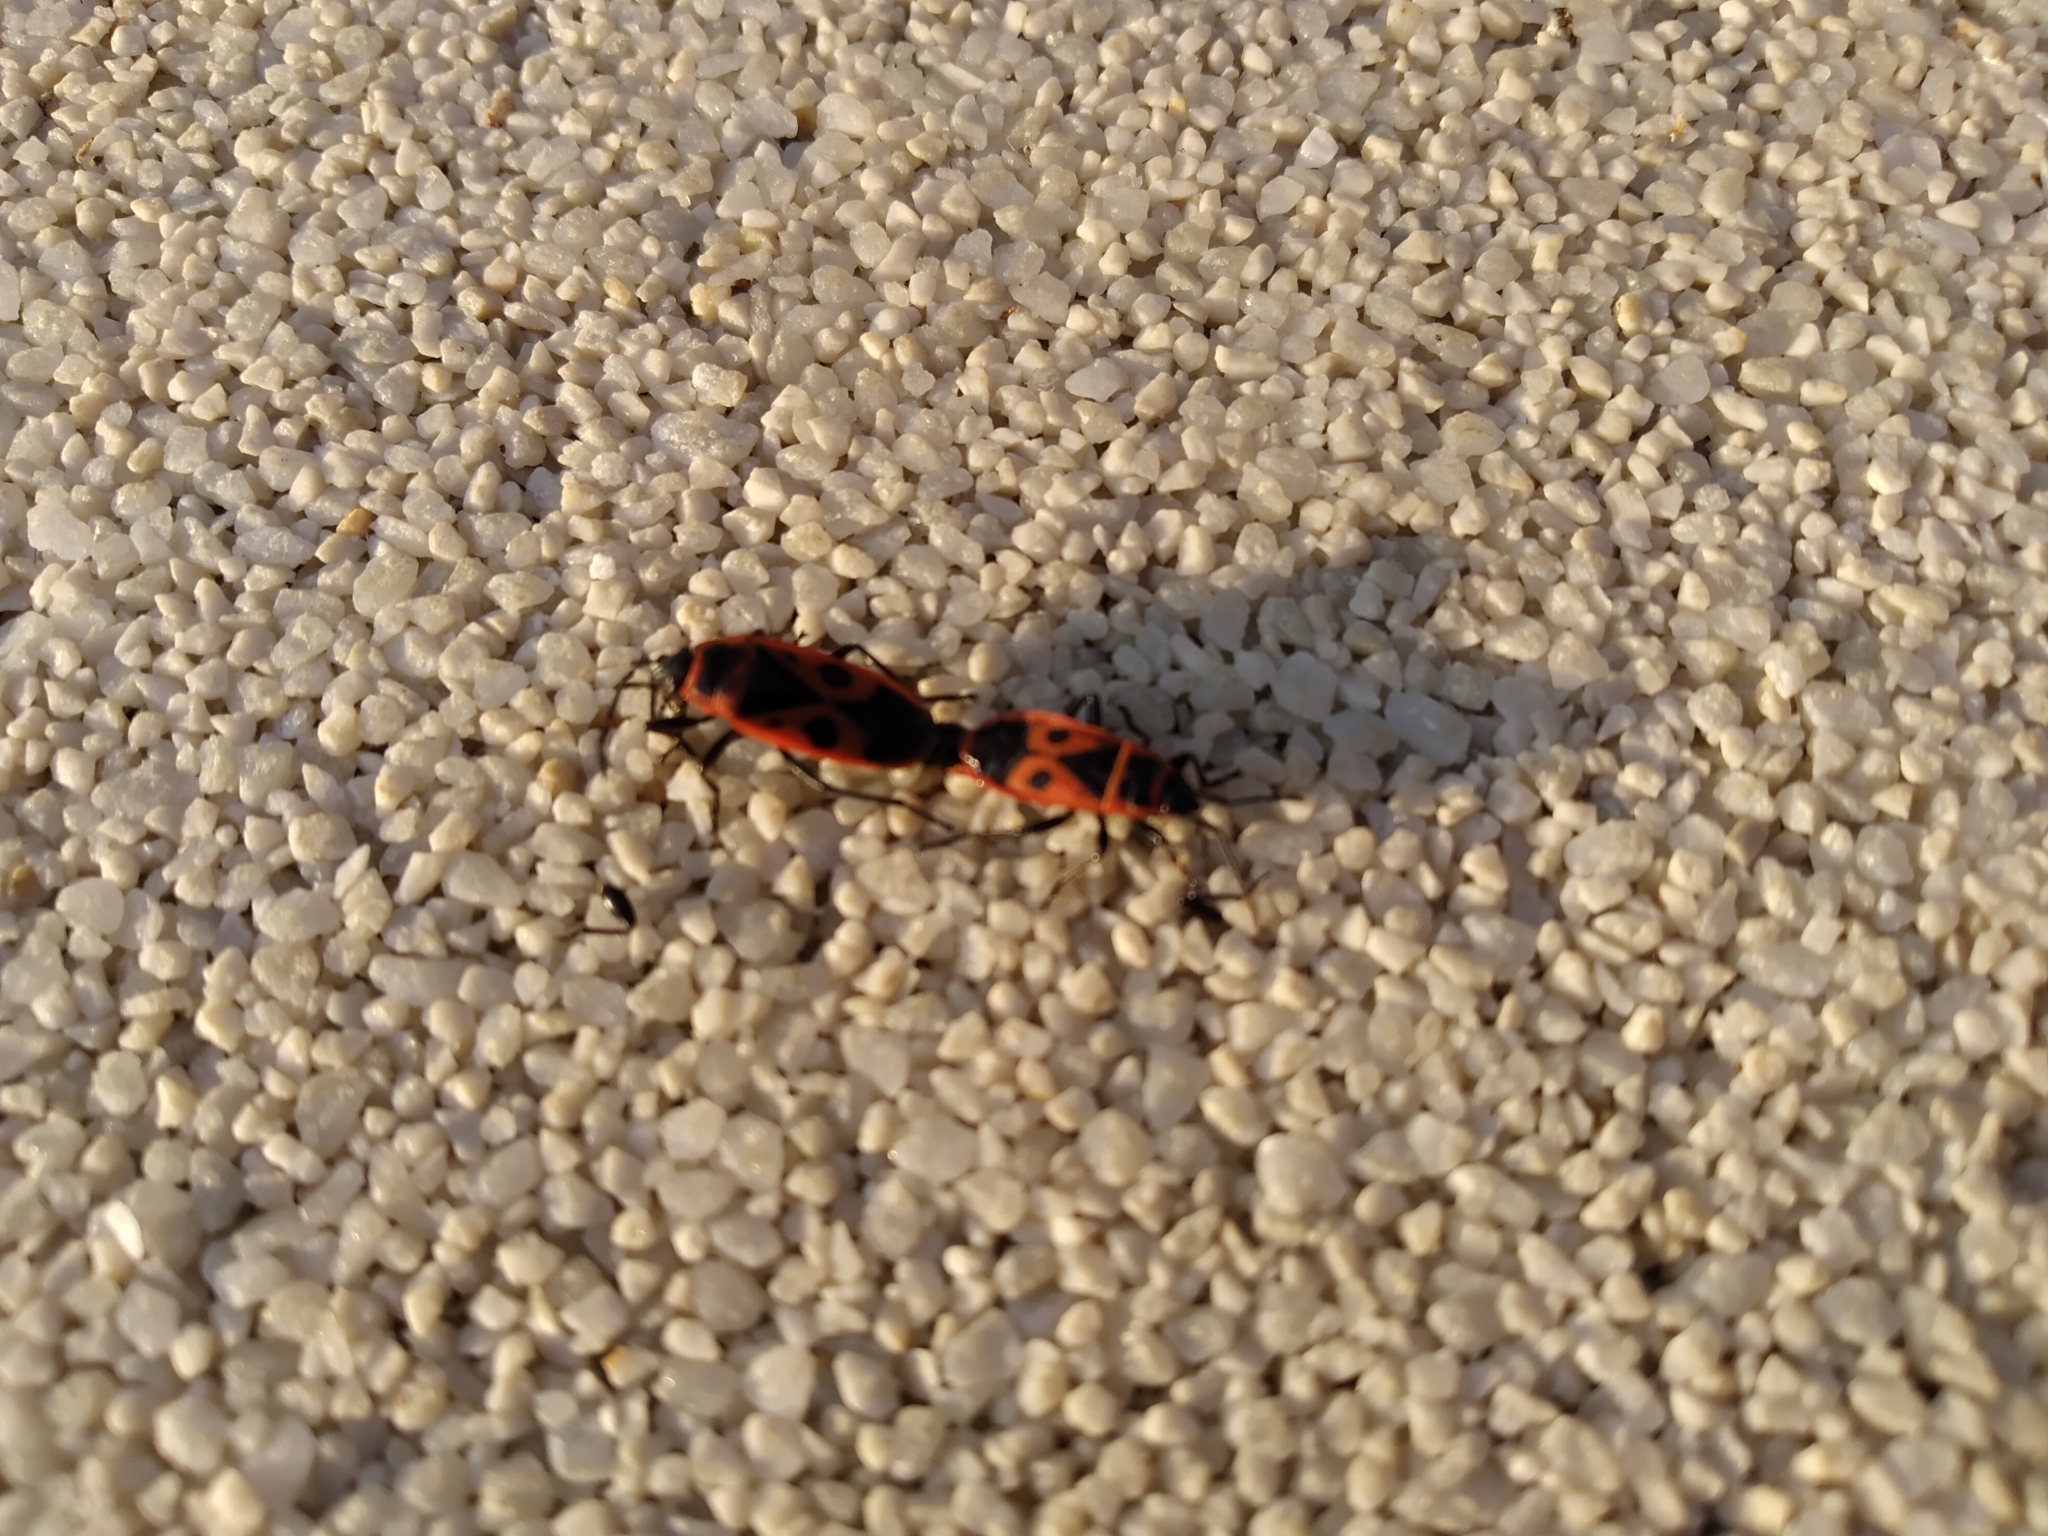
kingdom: Animalia
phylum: Arthropoda
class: Insecta
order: Hemiptera
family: Pyrrhocoridae
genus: Pyrrhocoris
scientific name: Pyrrhocoris apterus
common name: Firebug
